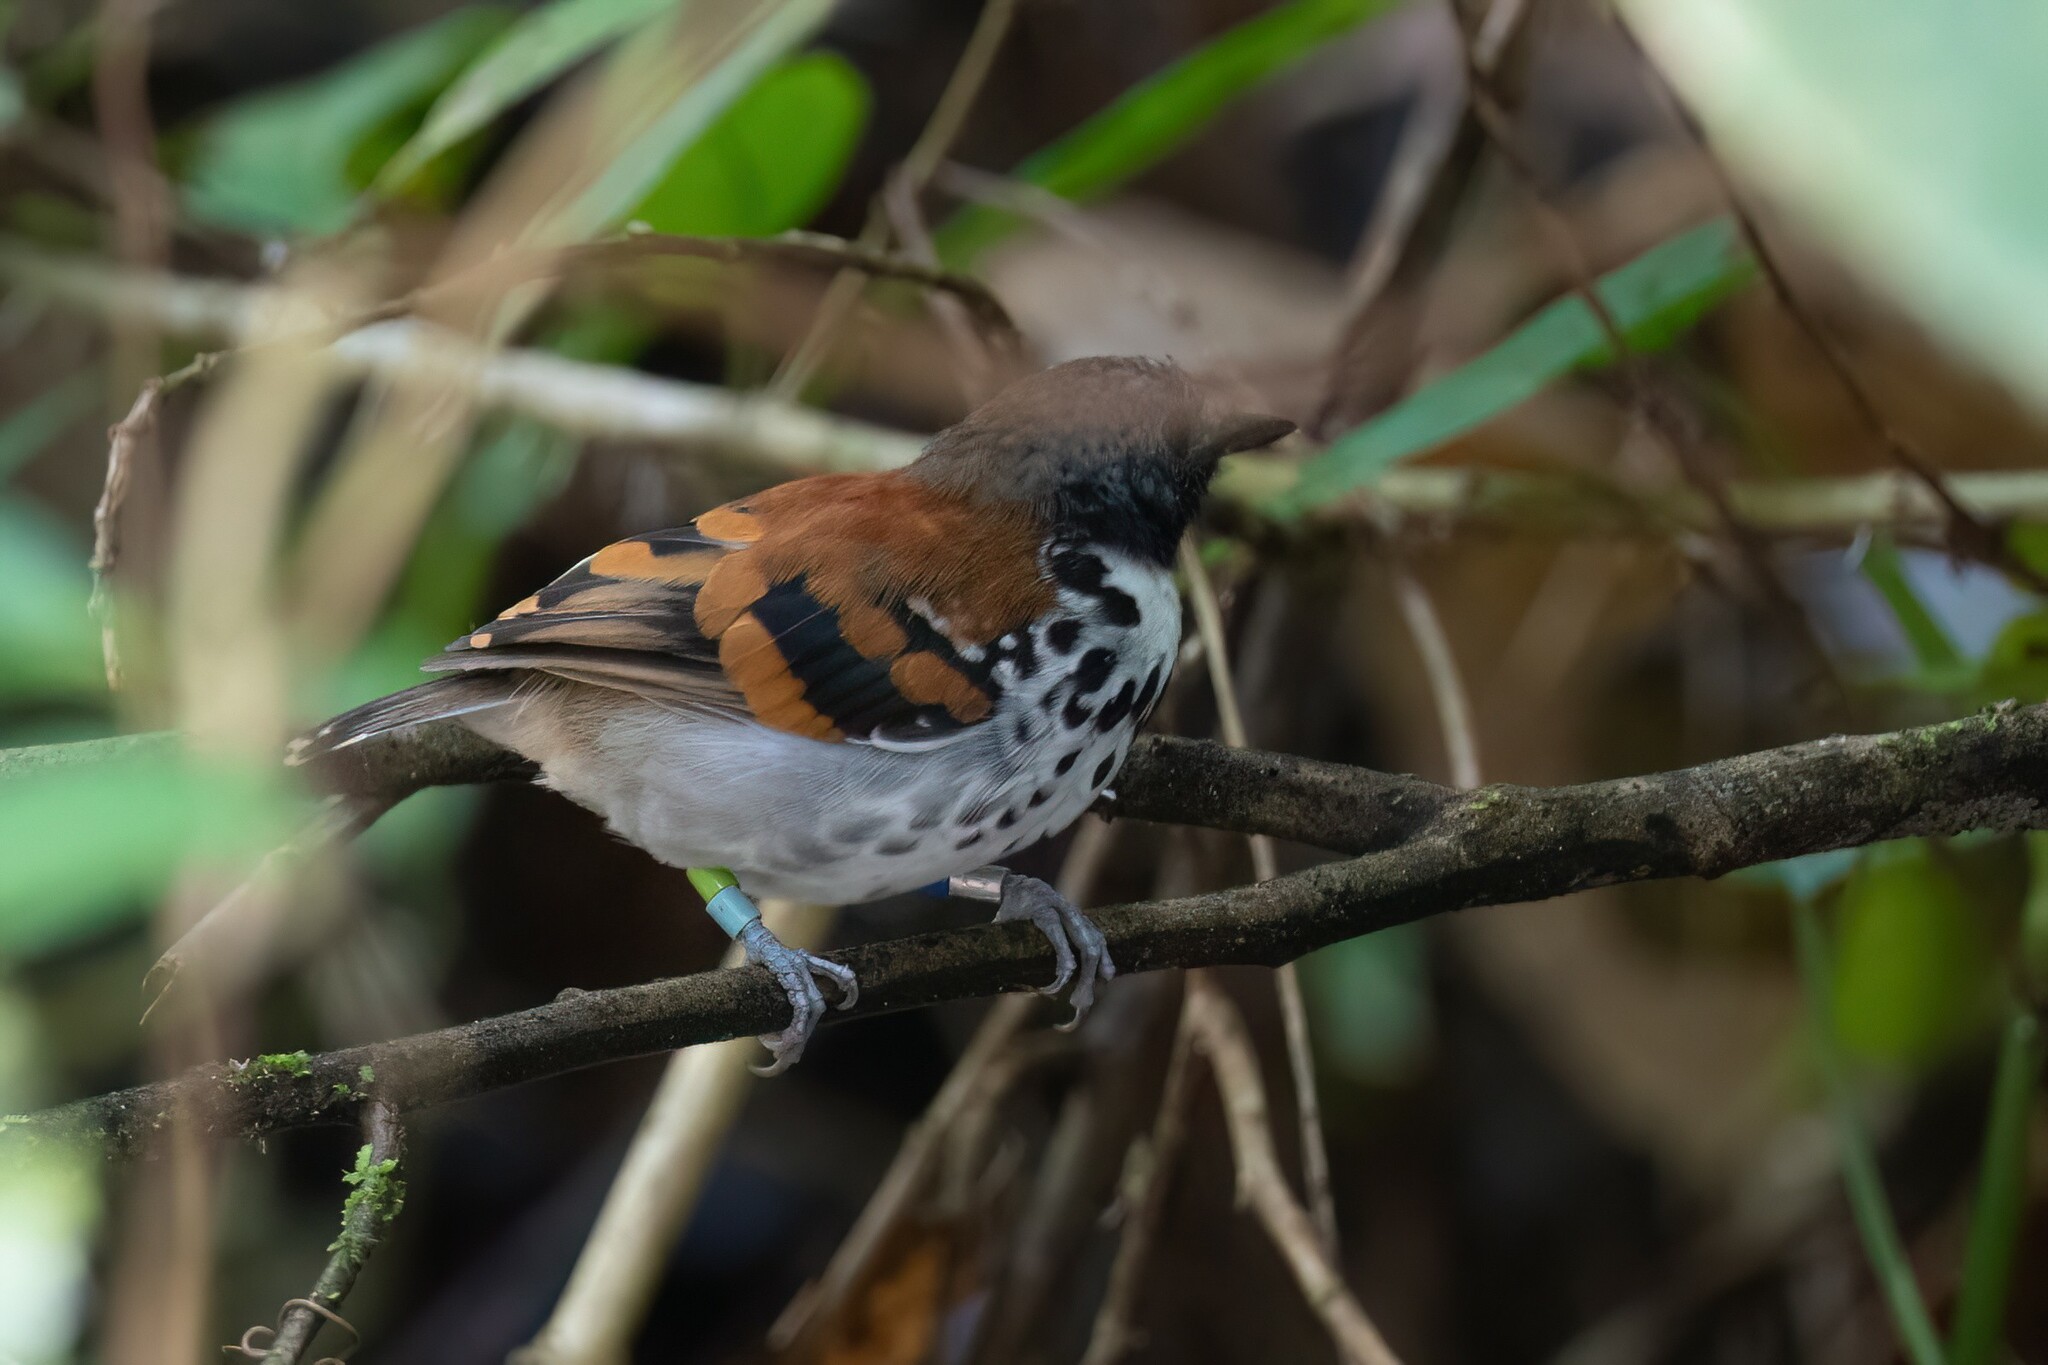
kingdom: Animalia
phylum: Chordata
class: Aves
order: Passeriformes
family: Thamnophilidae
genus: Hylophylax
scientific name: Hylophylax naevioides
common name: Spotted antbird
